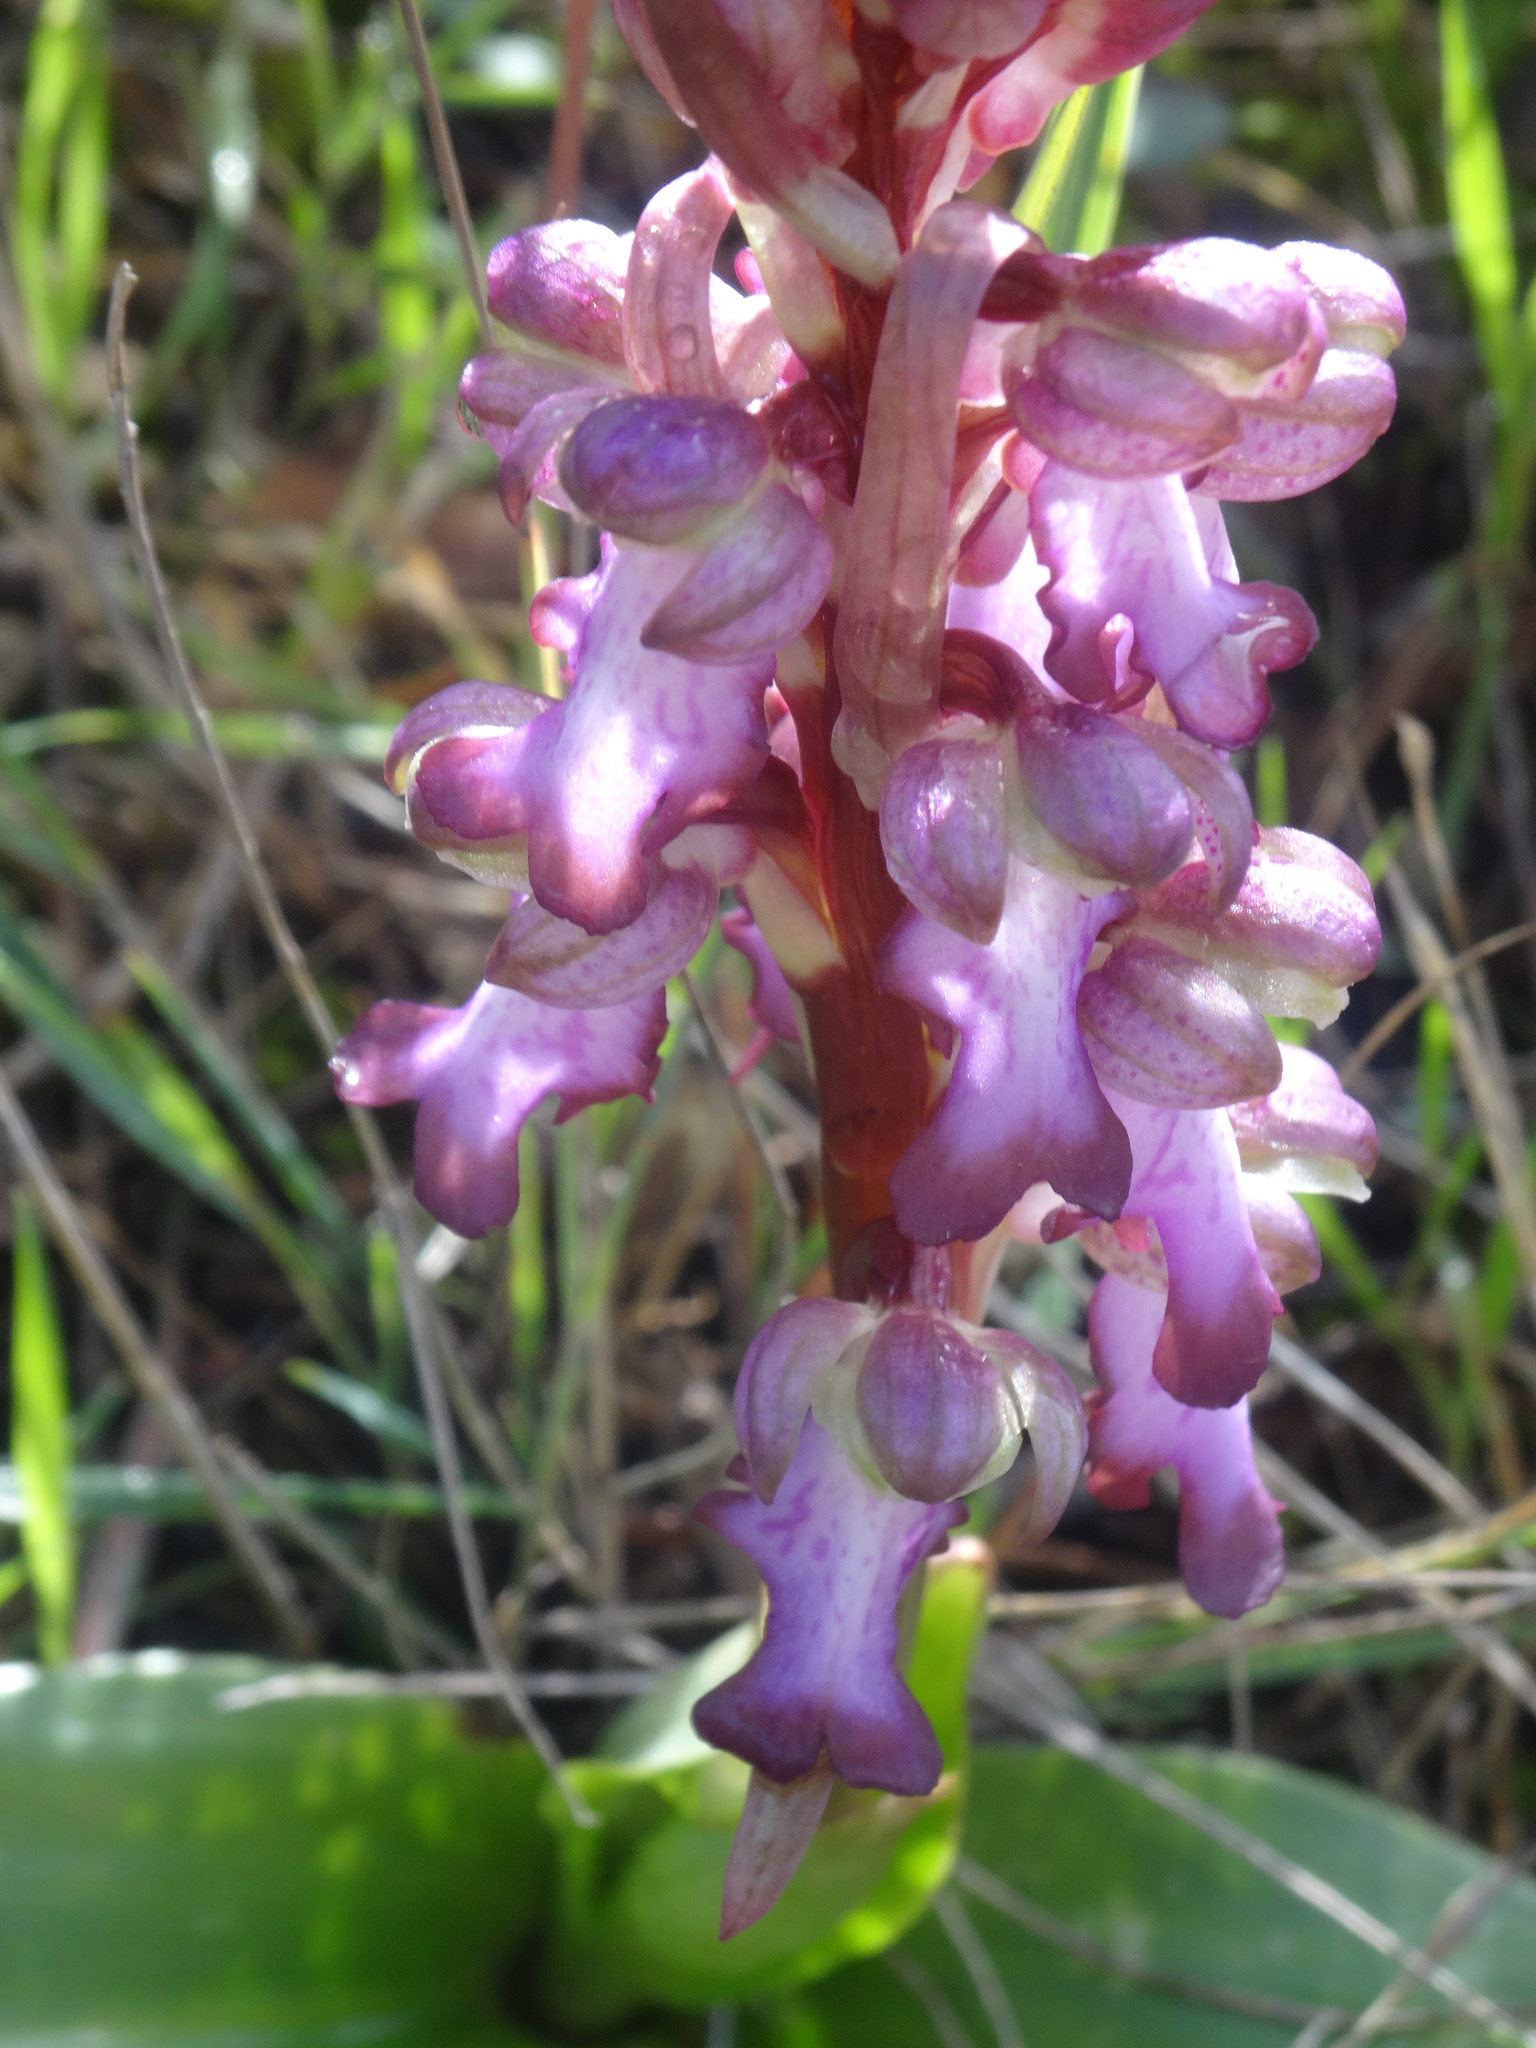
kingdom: Plantae
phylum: Tracheophyta
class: Liliopsida
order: Asparagales
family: Orchidaceae
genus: Himantoglossum
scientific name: Himantoglossum robertianum
